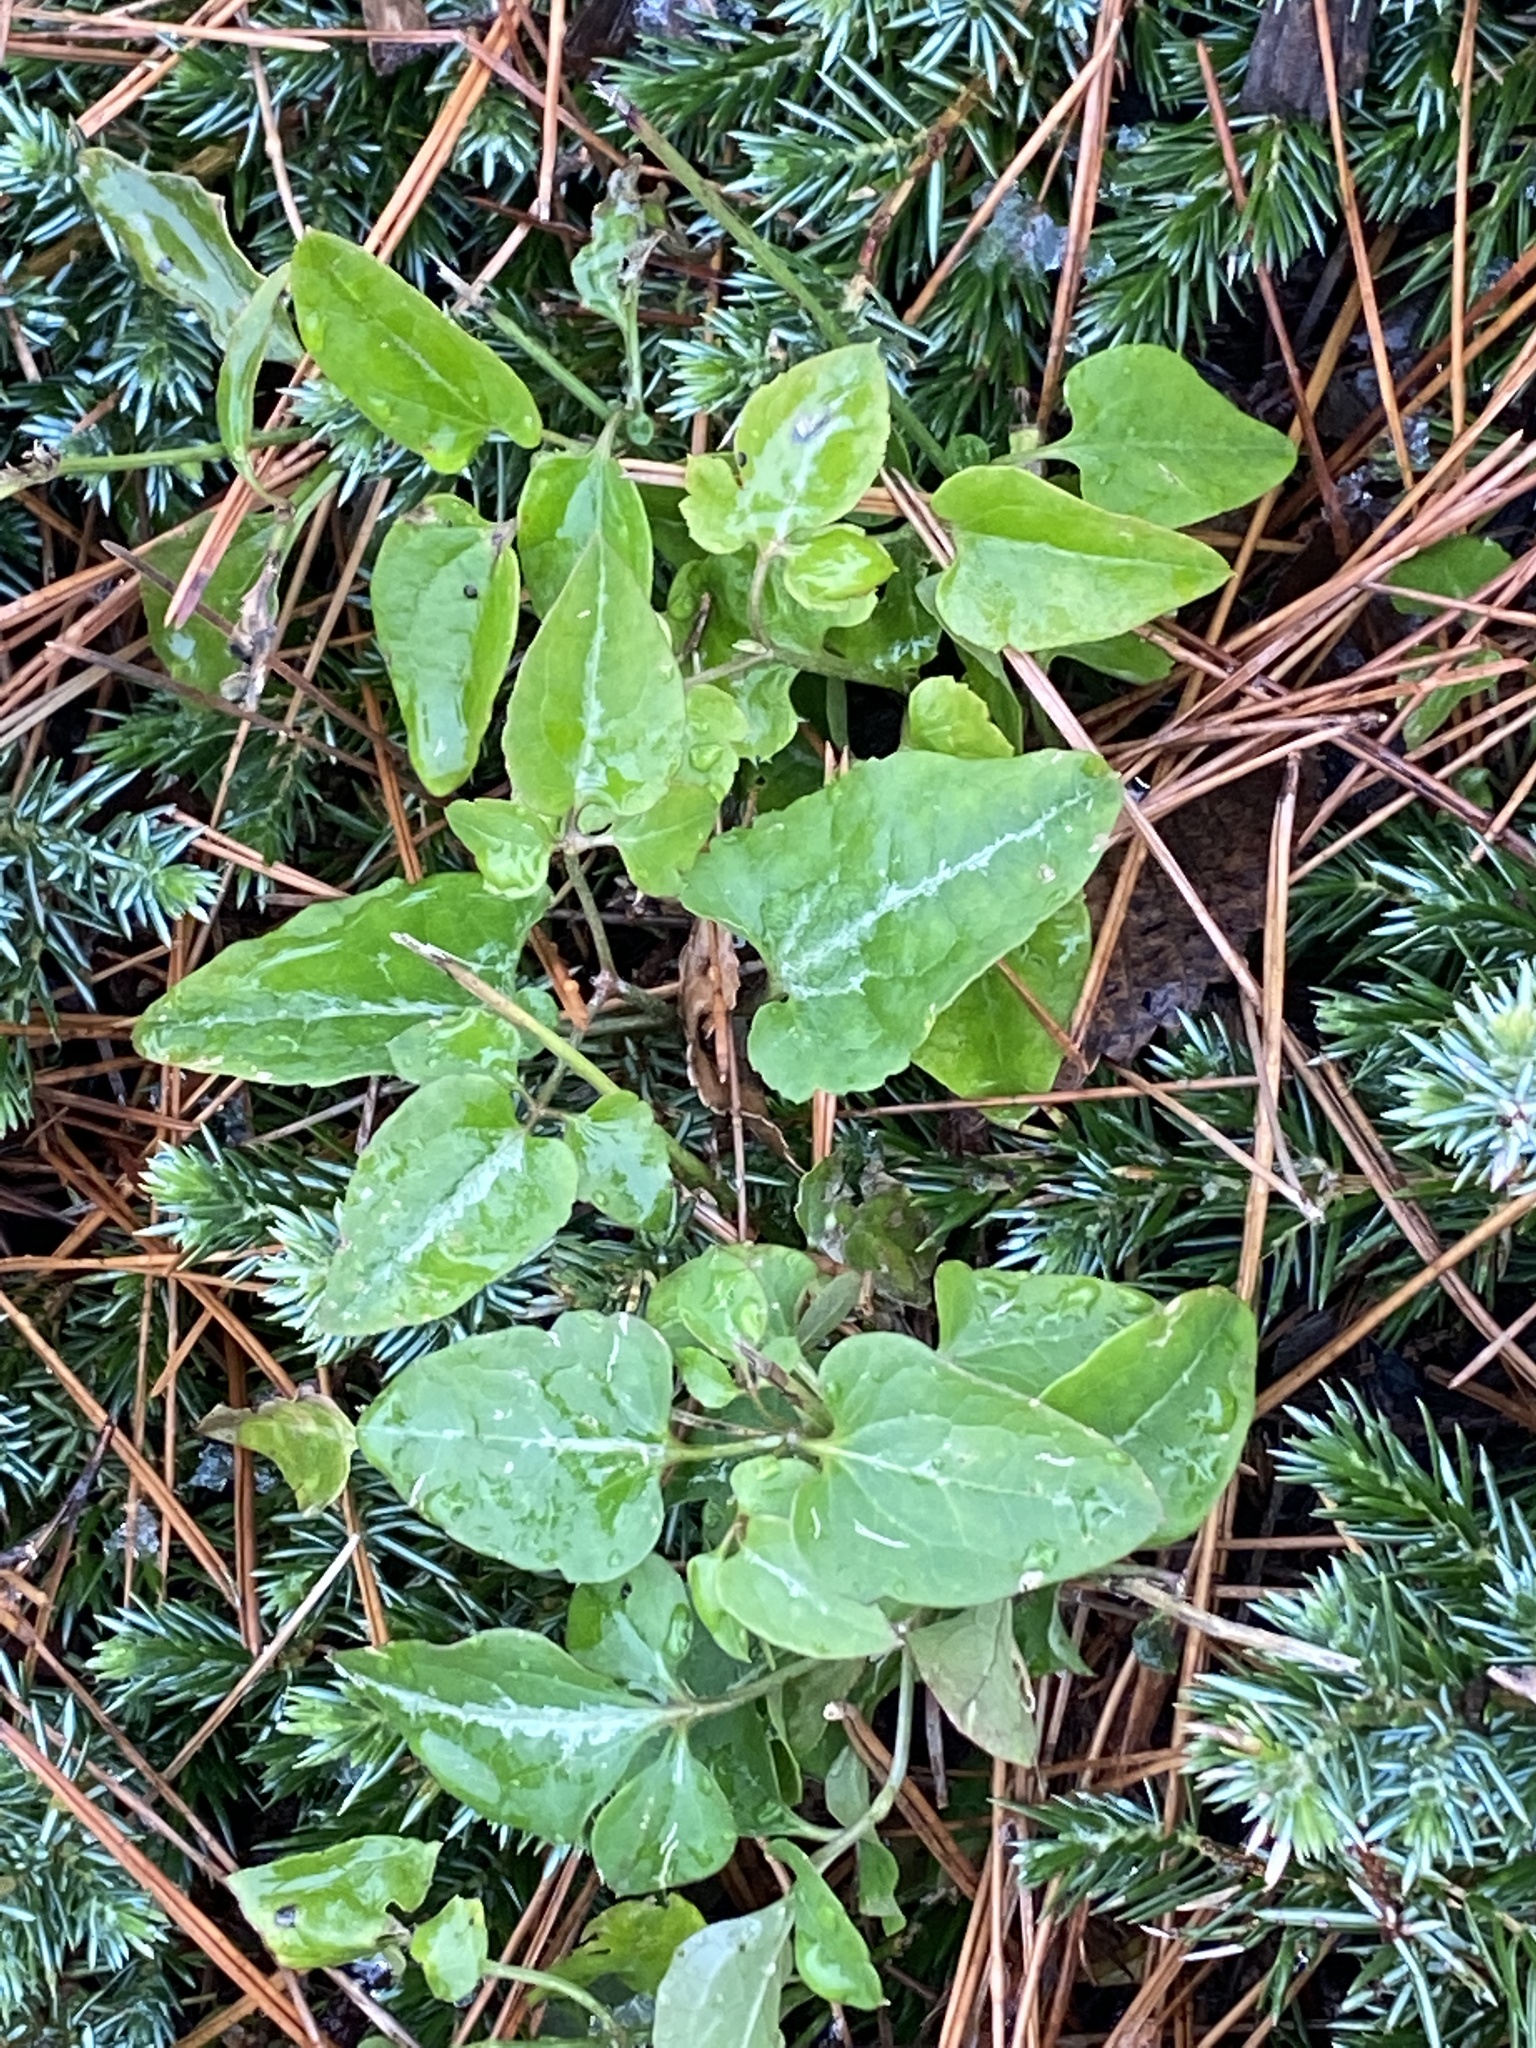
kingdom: Plantae
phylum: Tracheophyta
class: Magnoliopsida
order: Ranunculales
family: Ranunculaceae
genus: Clematis
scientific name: Clematis terniflora
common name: Sweet autumn clematis
